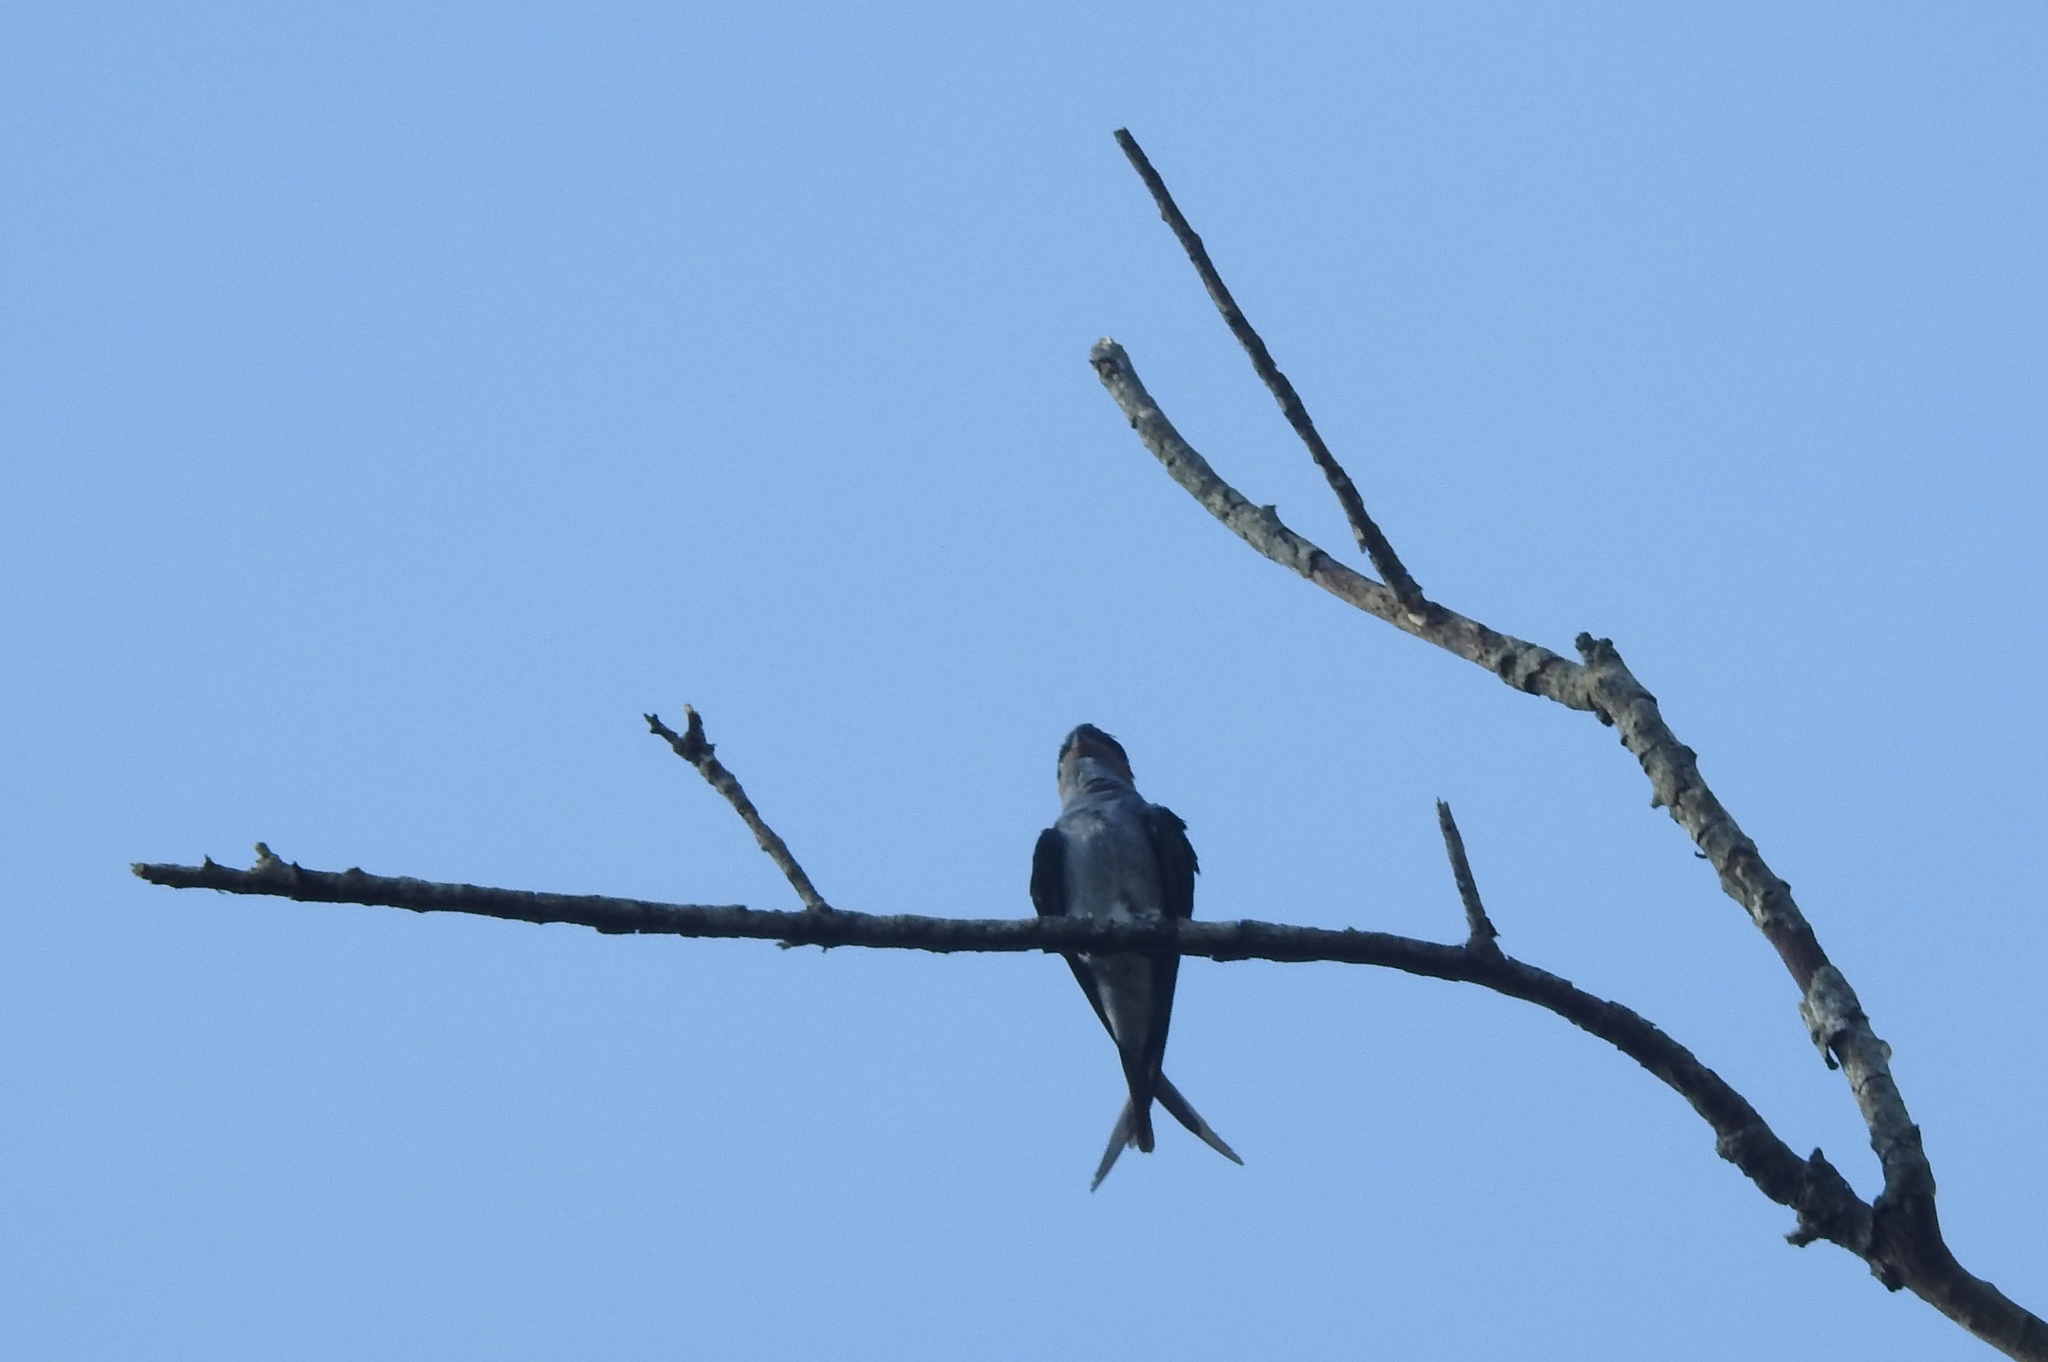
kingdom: Animalia
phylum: Chordata
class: Aves
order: Apodiformes
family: Hemiprocnidae
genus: Hemiprocne
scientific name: Hemiprocne coronata
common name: Crested treeswift
